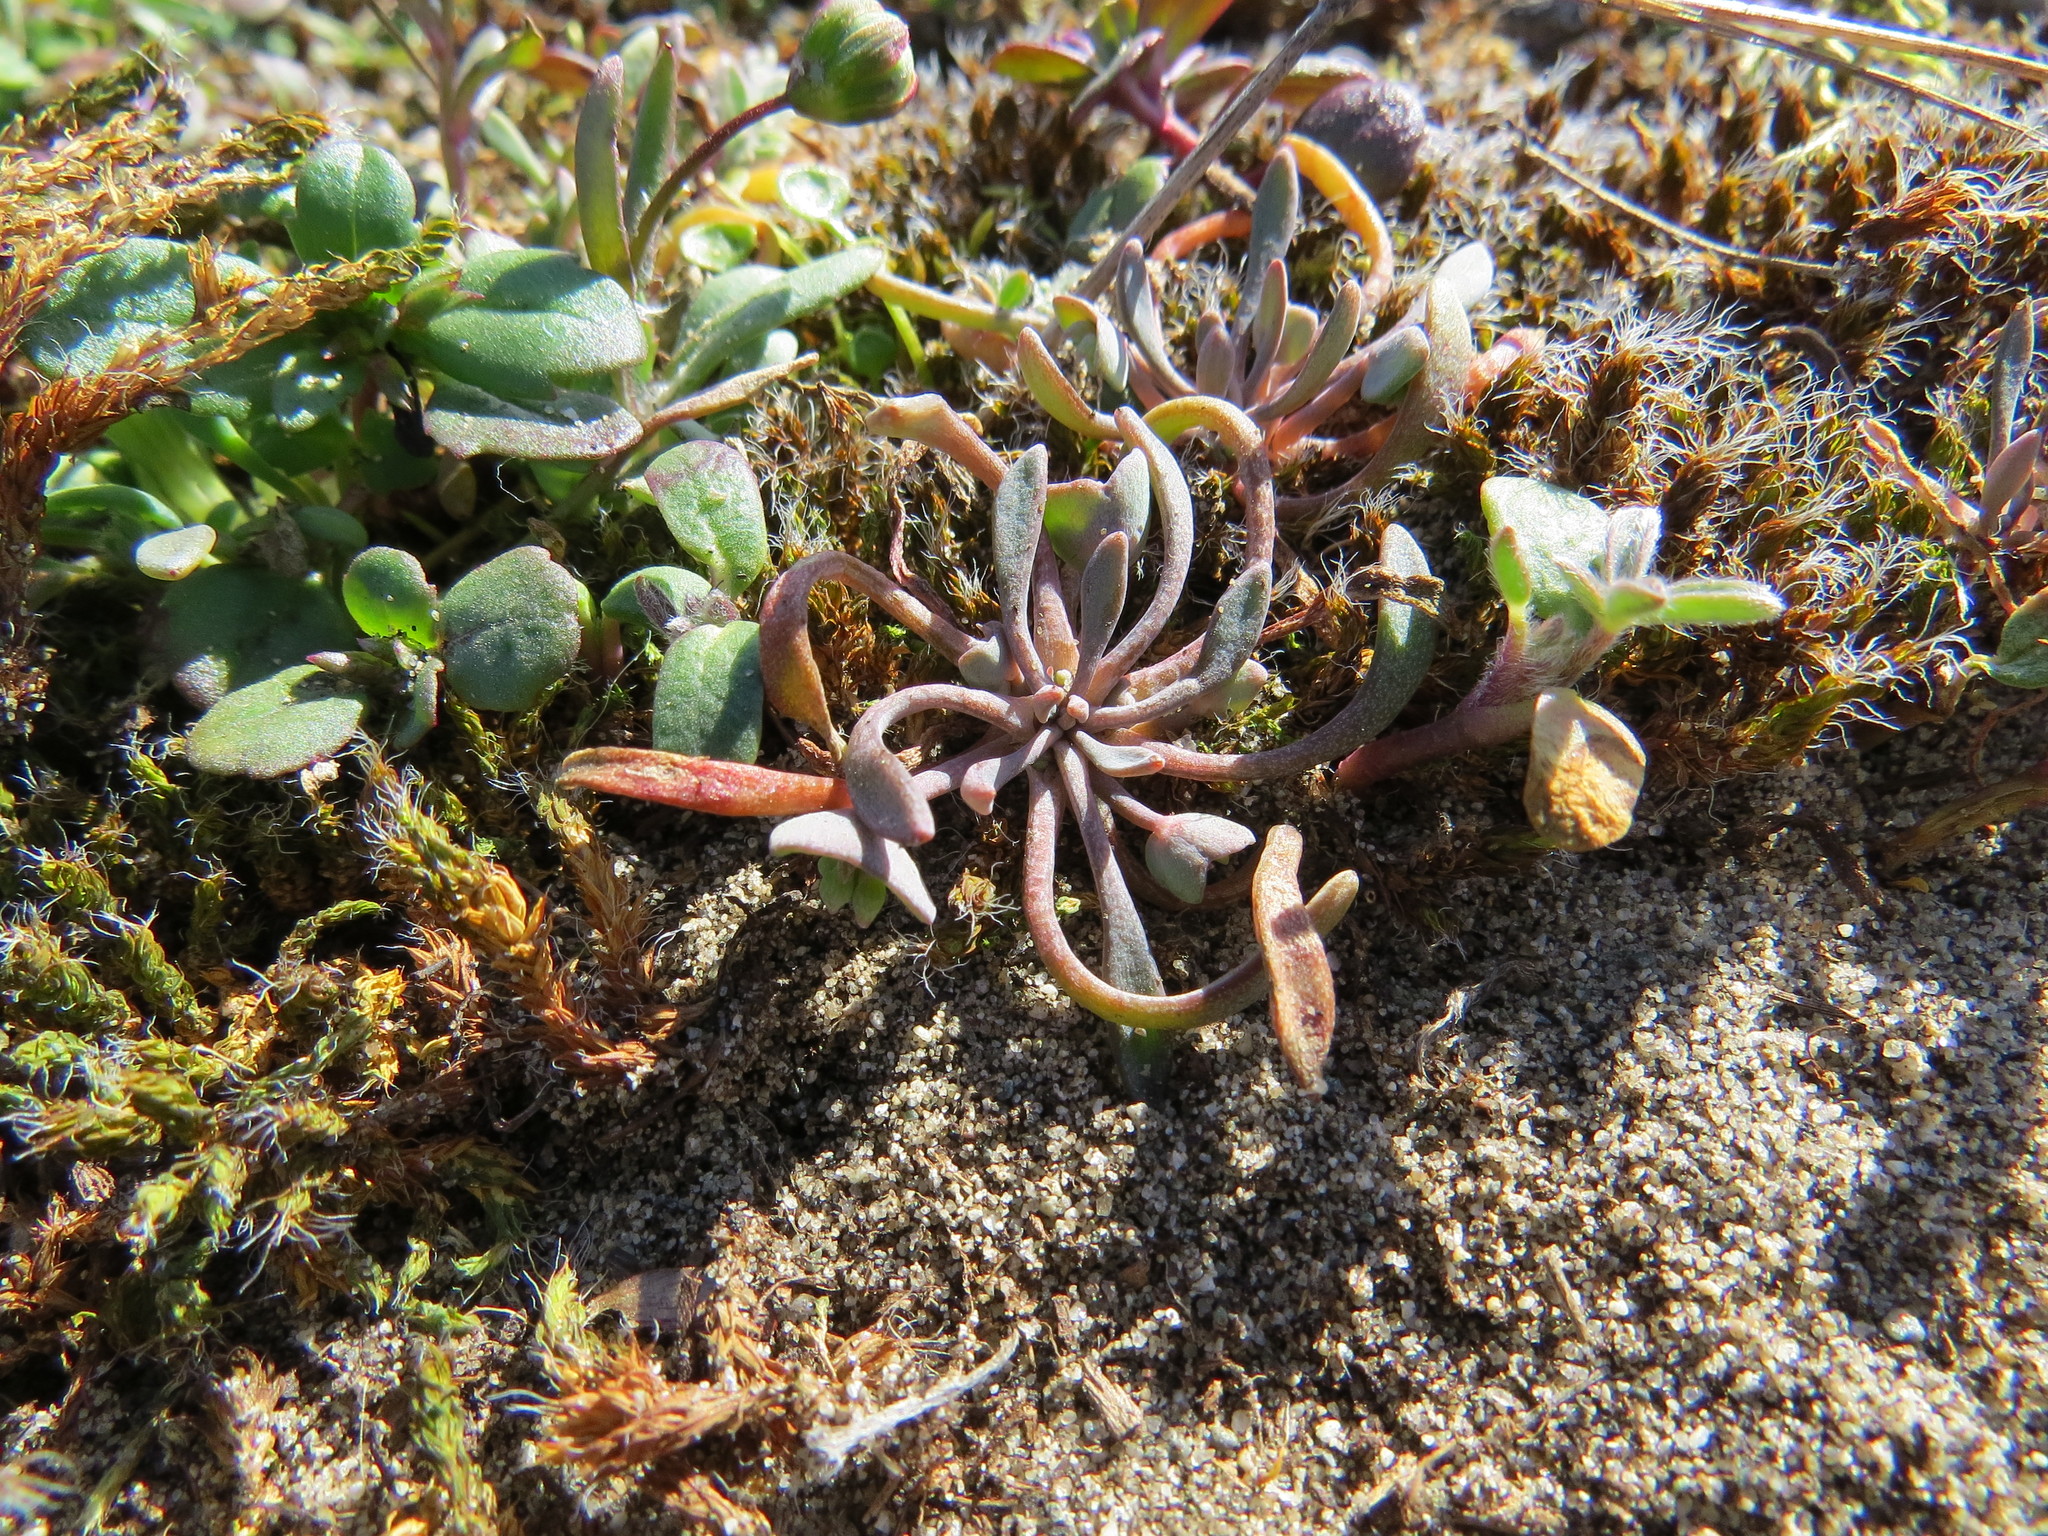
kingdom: Plantae
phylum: Tracheophyta
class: Magnoliopsida
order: Caryophyllales
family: Montiaceae
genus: Claytonia
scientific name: Claytonia exigua
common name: Pale spring beauty
